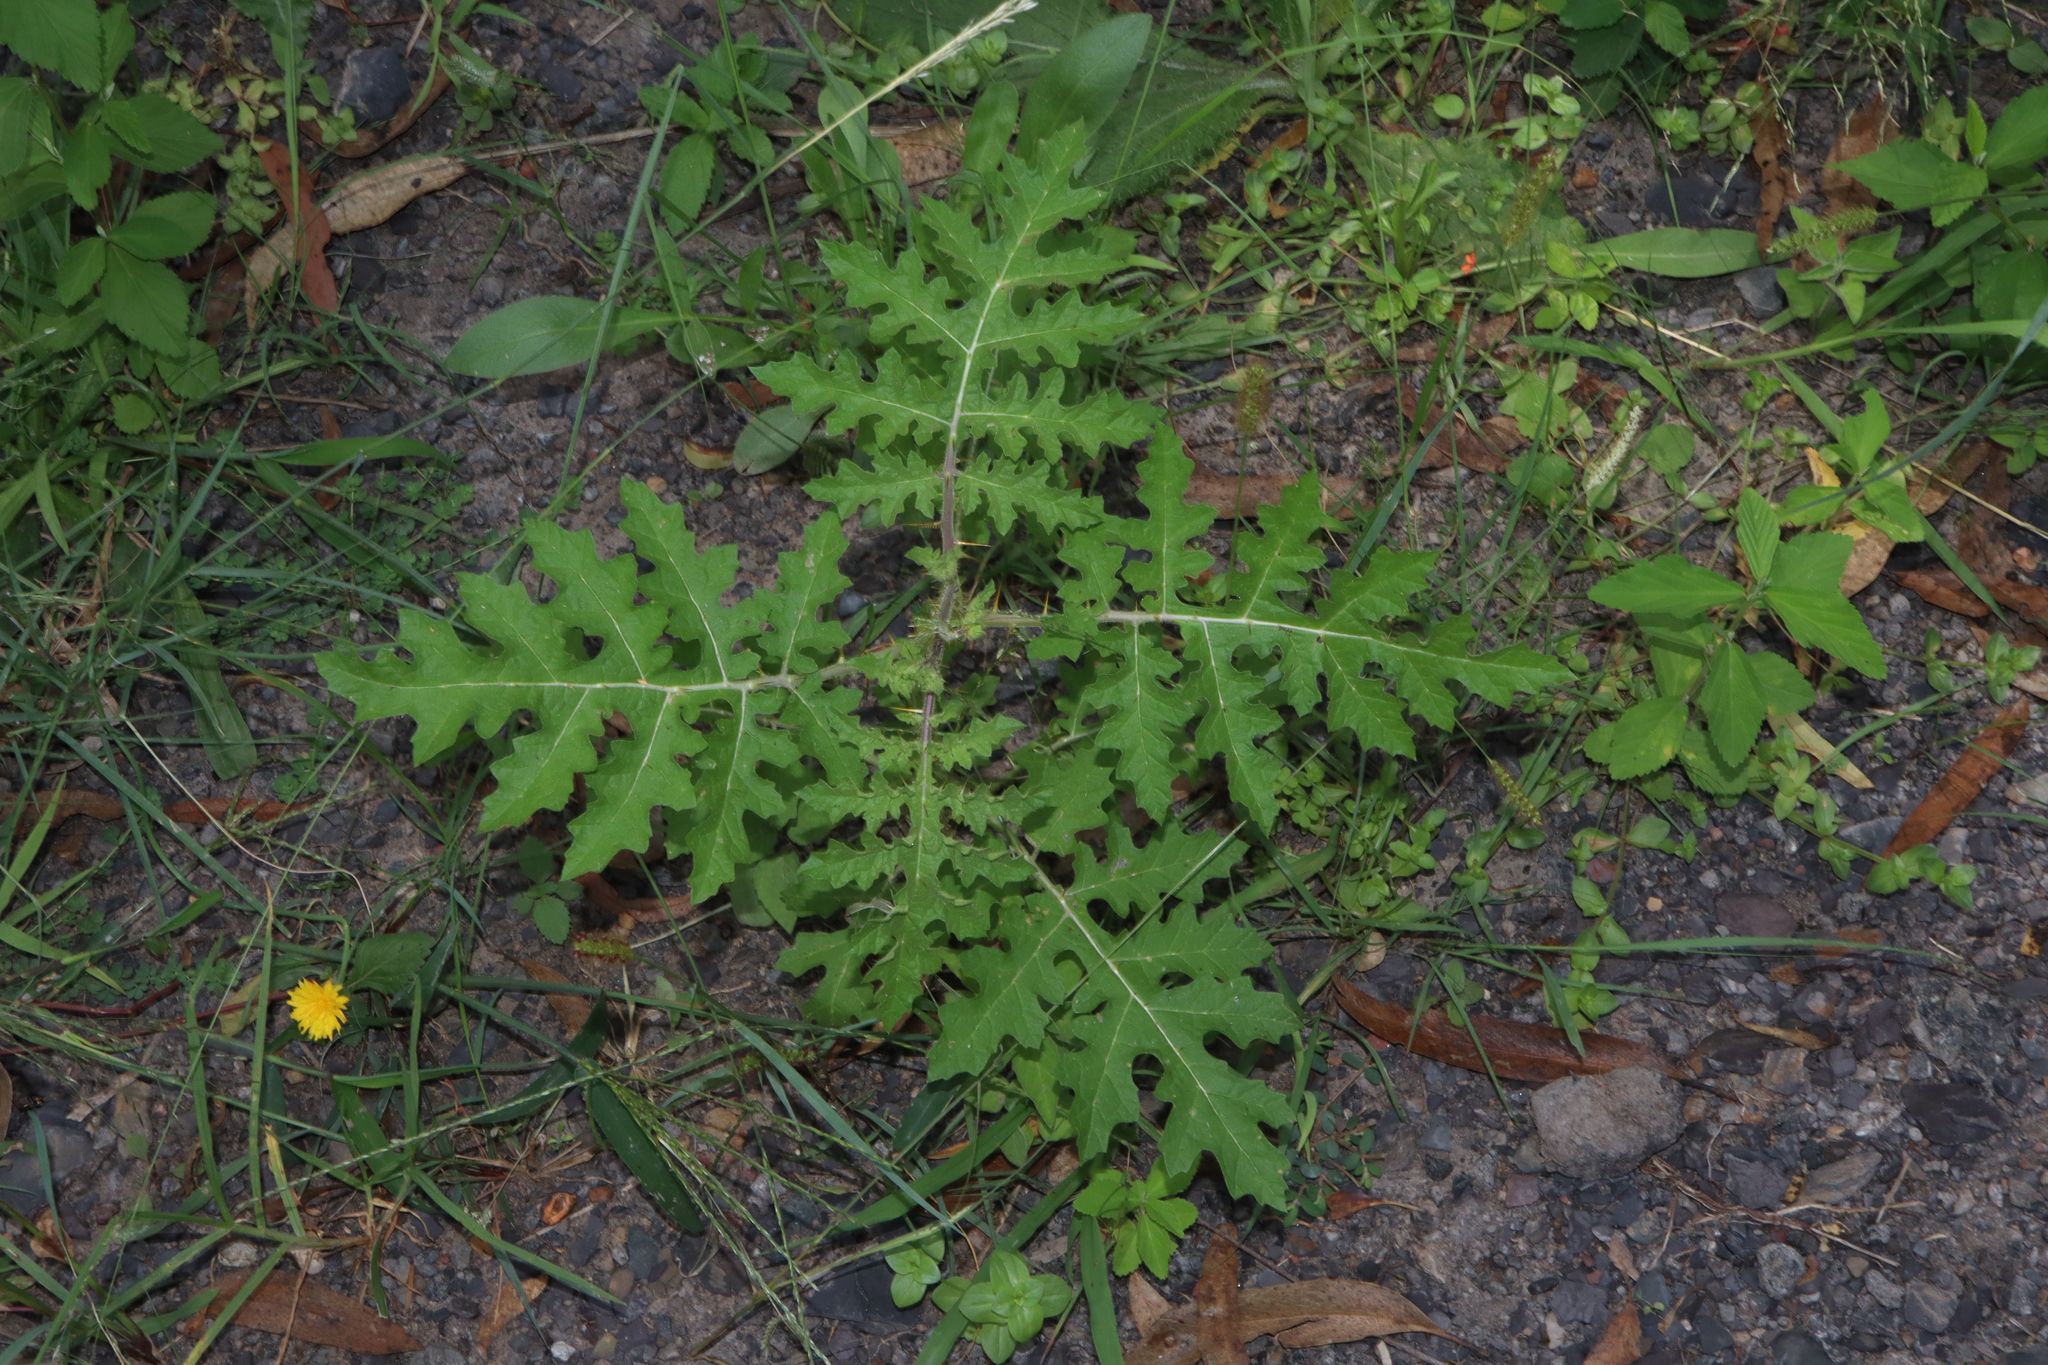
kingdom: Plantae
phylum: Tracheophyta
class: Magnoliopsida
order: Solanales
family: Solanaceae
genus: Solanum
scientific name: Solanum sisymbriifolium
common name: Red buffalo-bur
